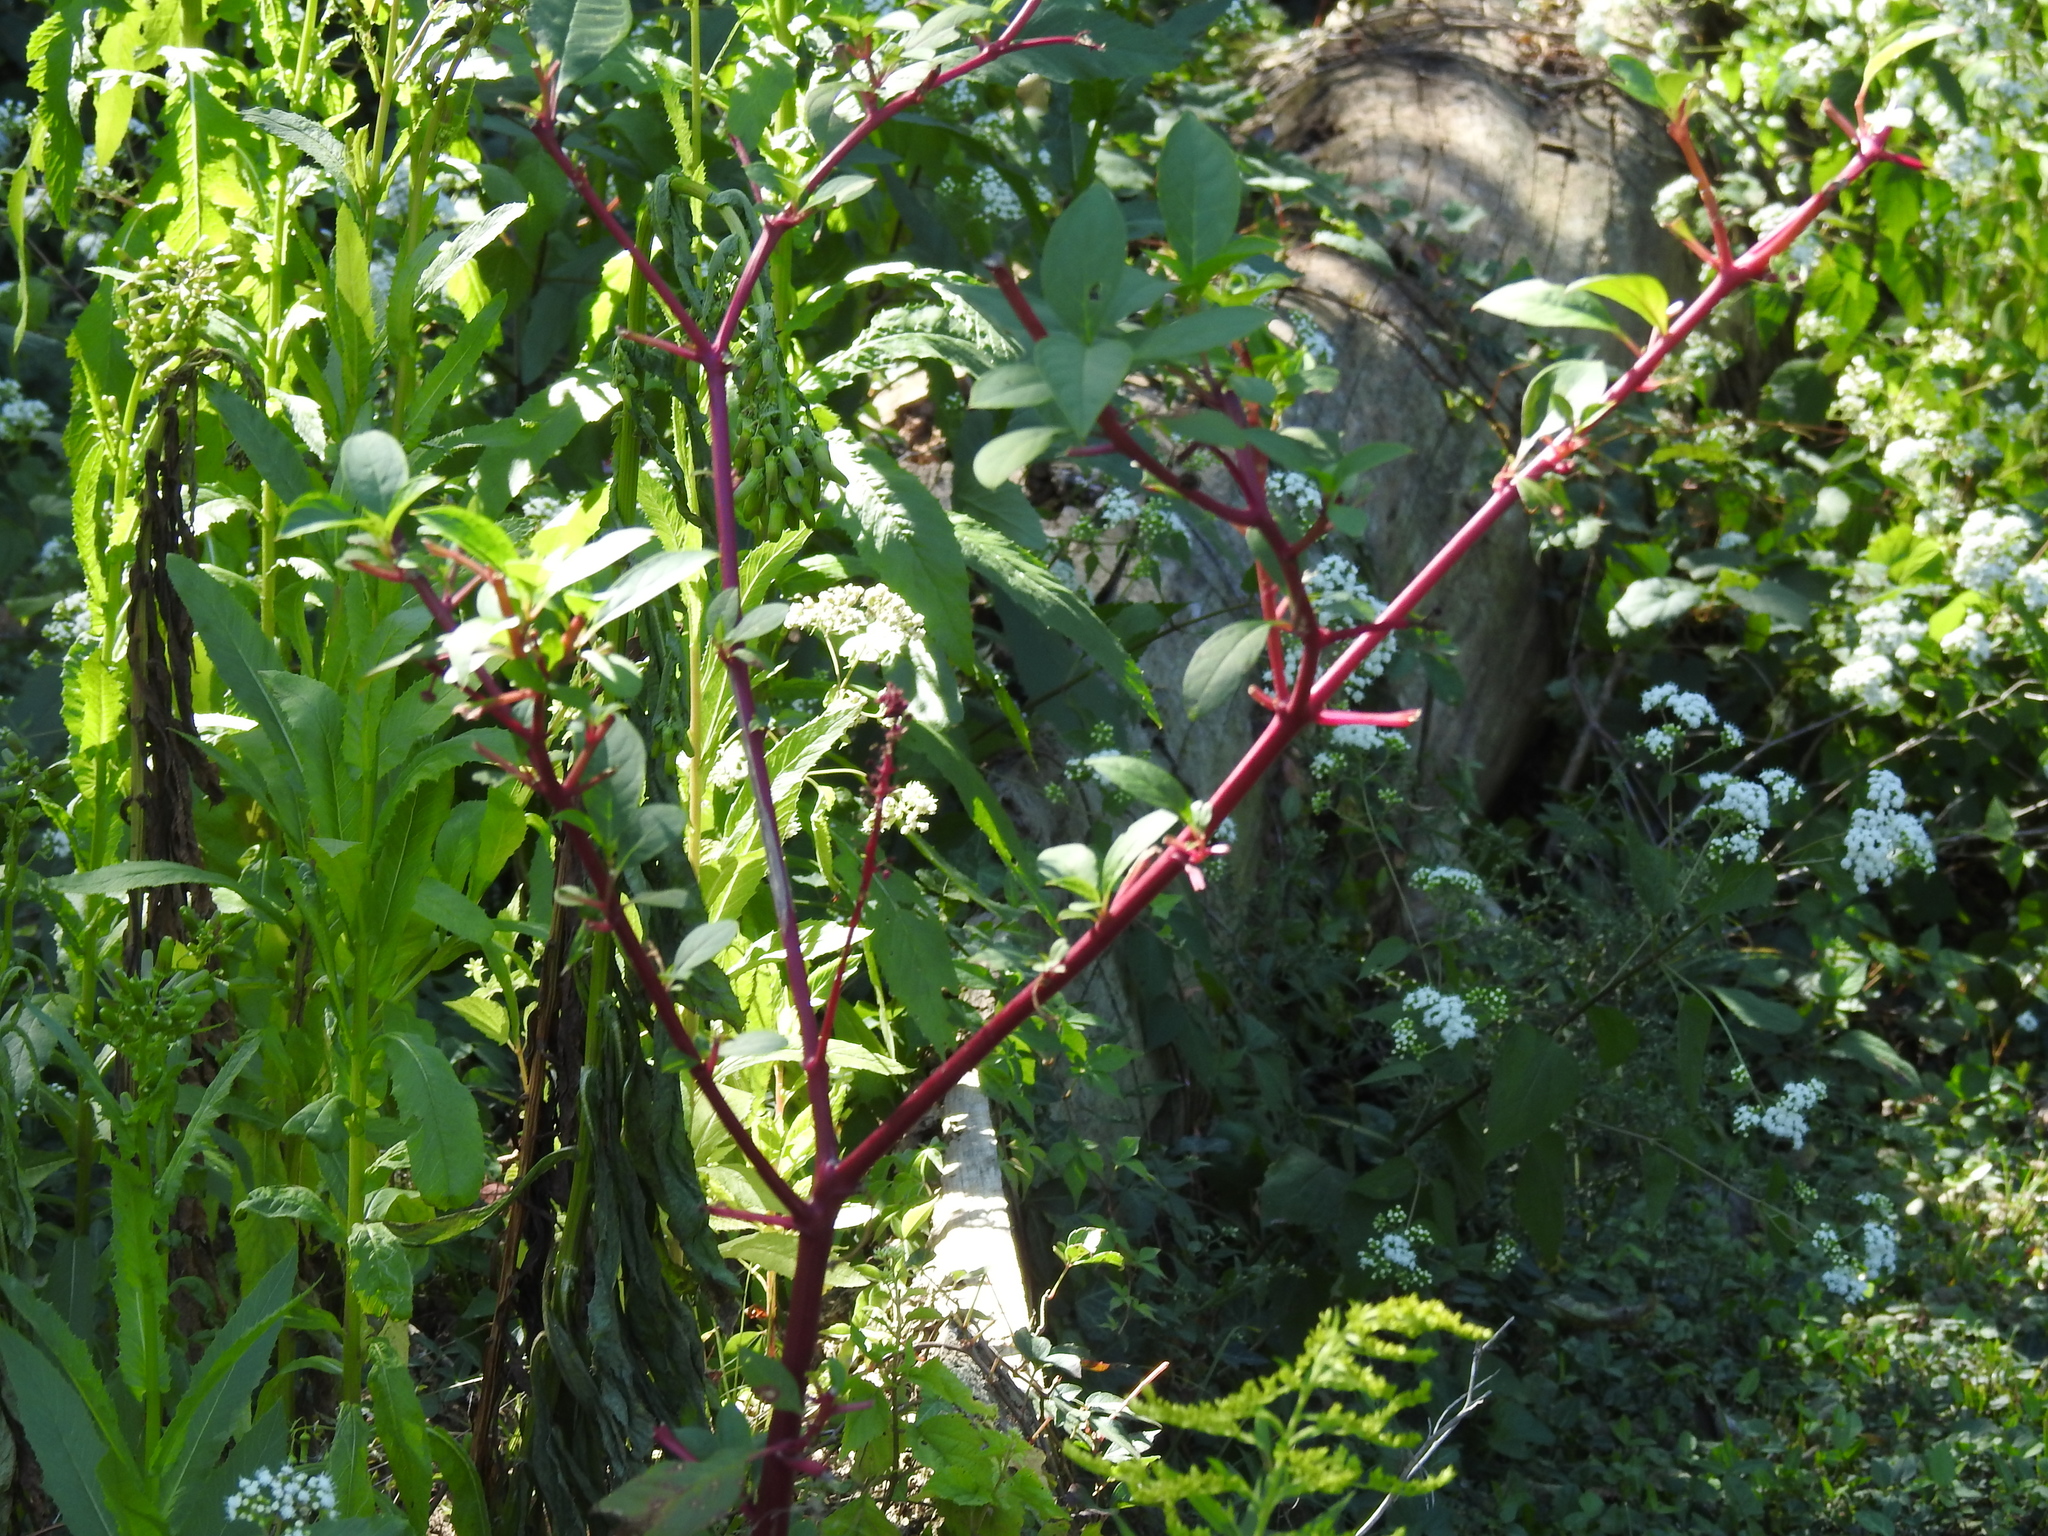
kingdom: Plantae
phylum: Tracheophyta
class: Magnoliopsida
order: Caryophyllales
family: Phytolaccaceae
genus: Phytolacca
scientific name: Phytolacca americana
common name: American pokeweed
